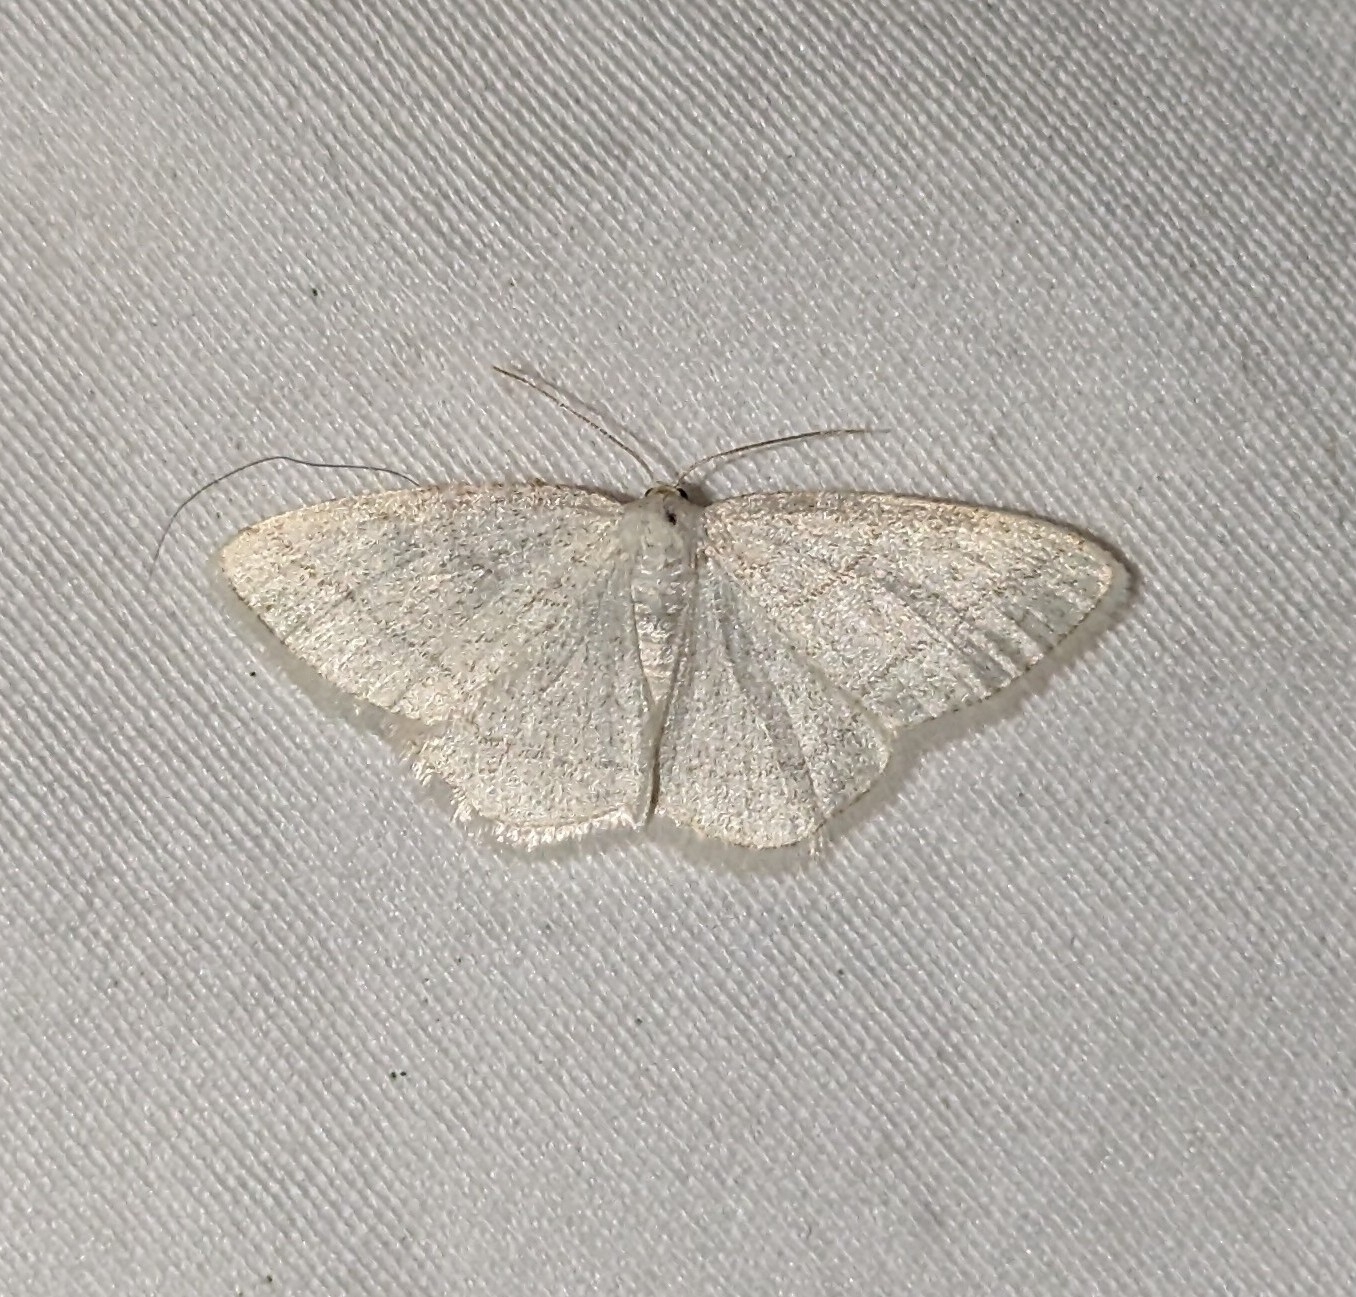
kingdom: Animalia
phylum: Arthropoda
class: Insecta
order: Lepidoptera
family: Geometridae
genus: Protitame
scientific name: Protitame subalbaria
